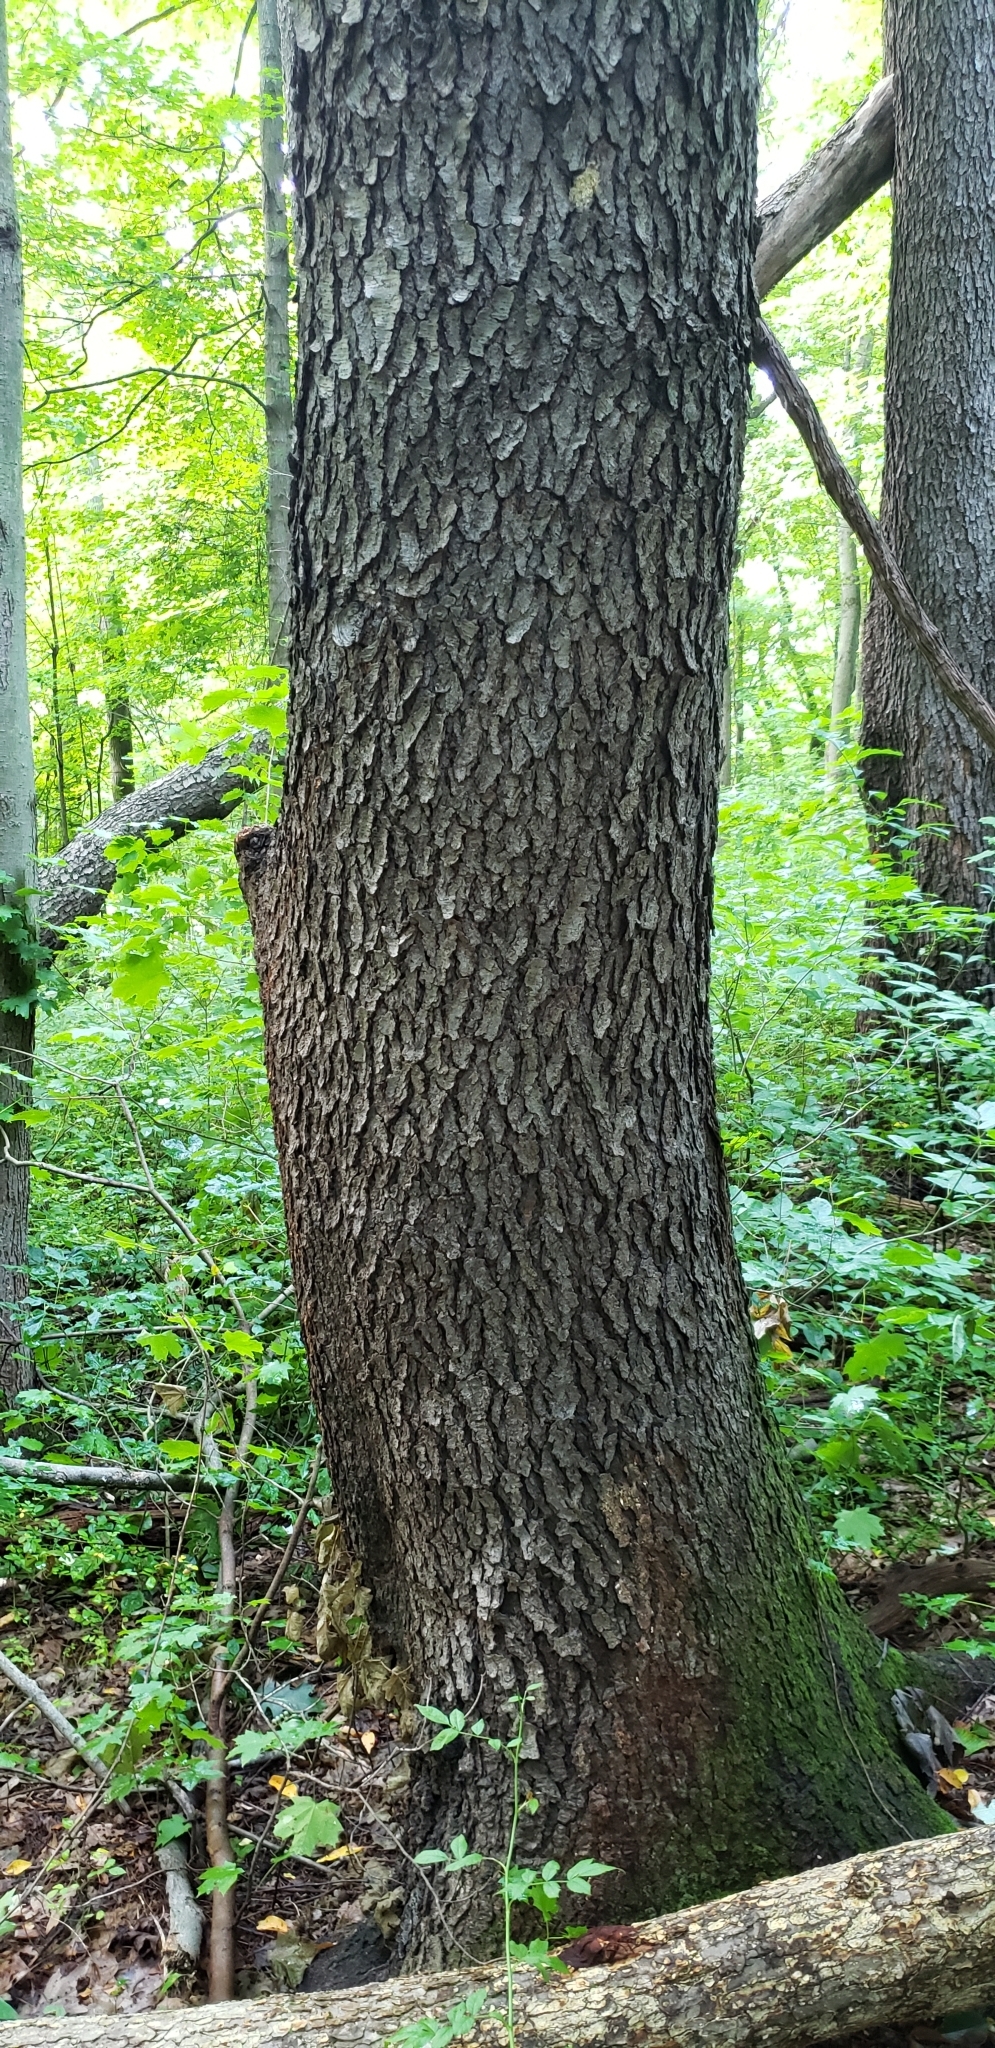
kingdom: Plantae
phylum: Tracheophyta
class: Magnoliopsida
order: Rosales
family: Rosaceae
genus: Prunus
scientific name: Prunus serotina
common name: Black cherry
